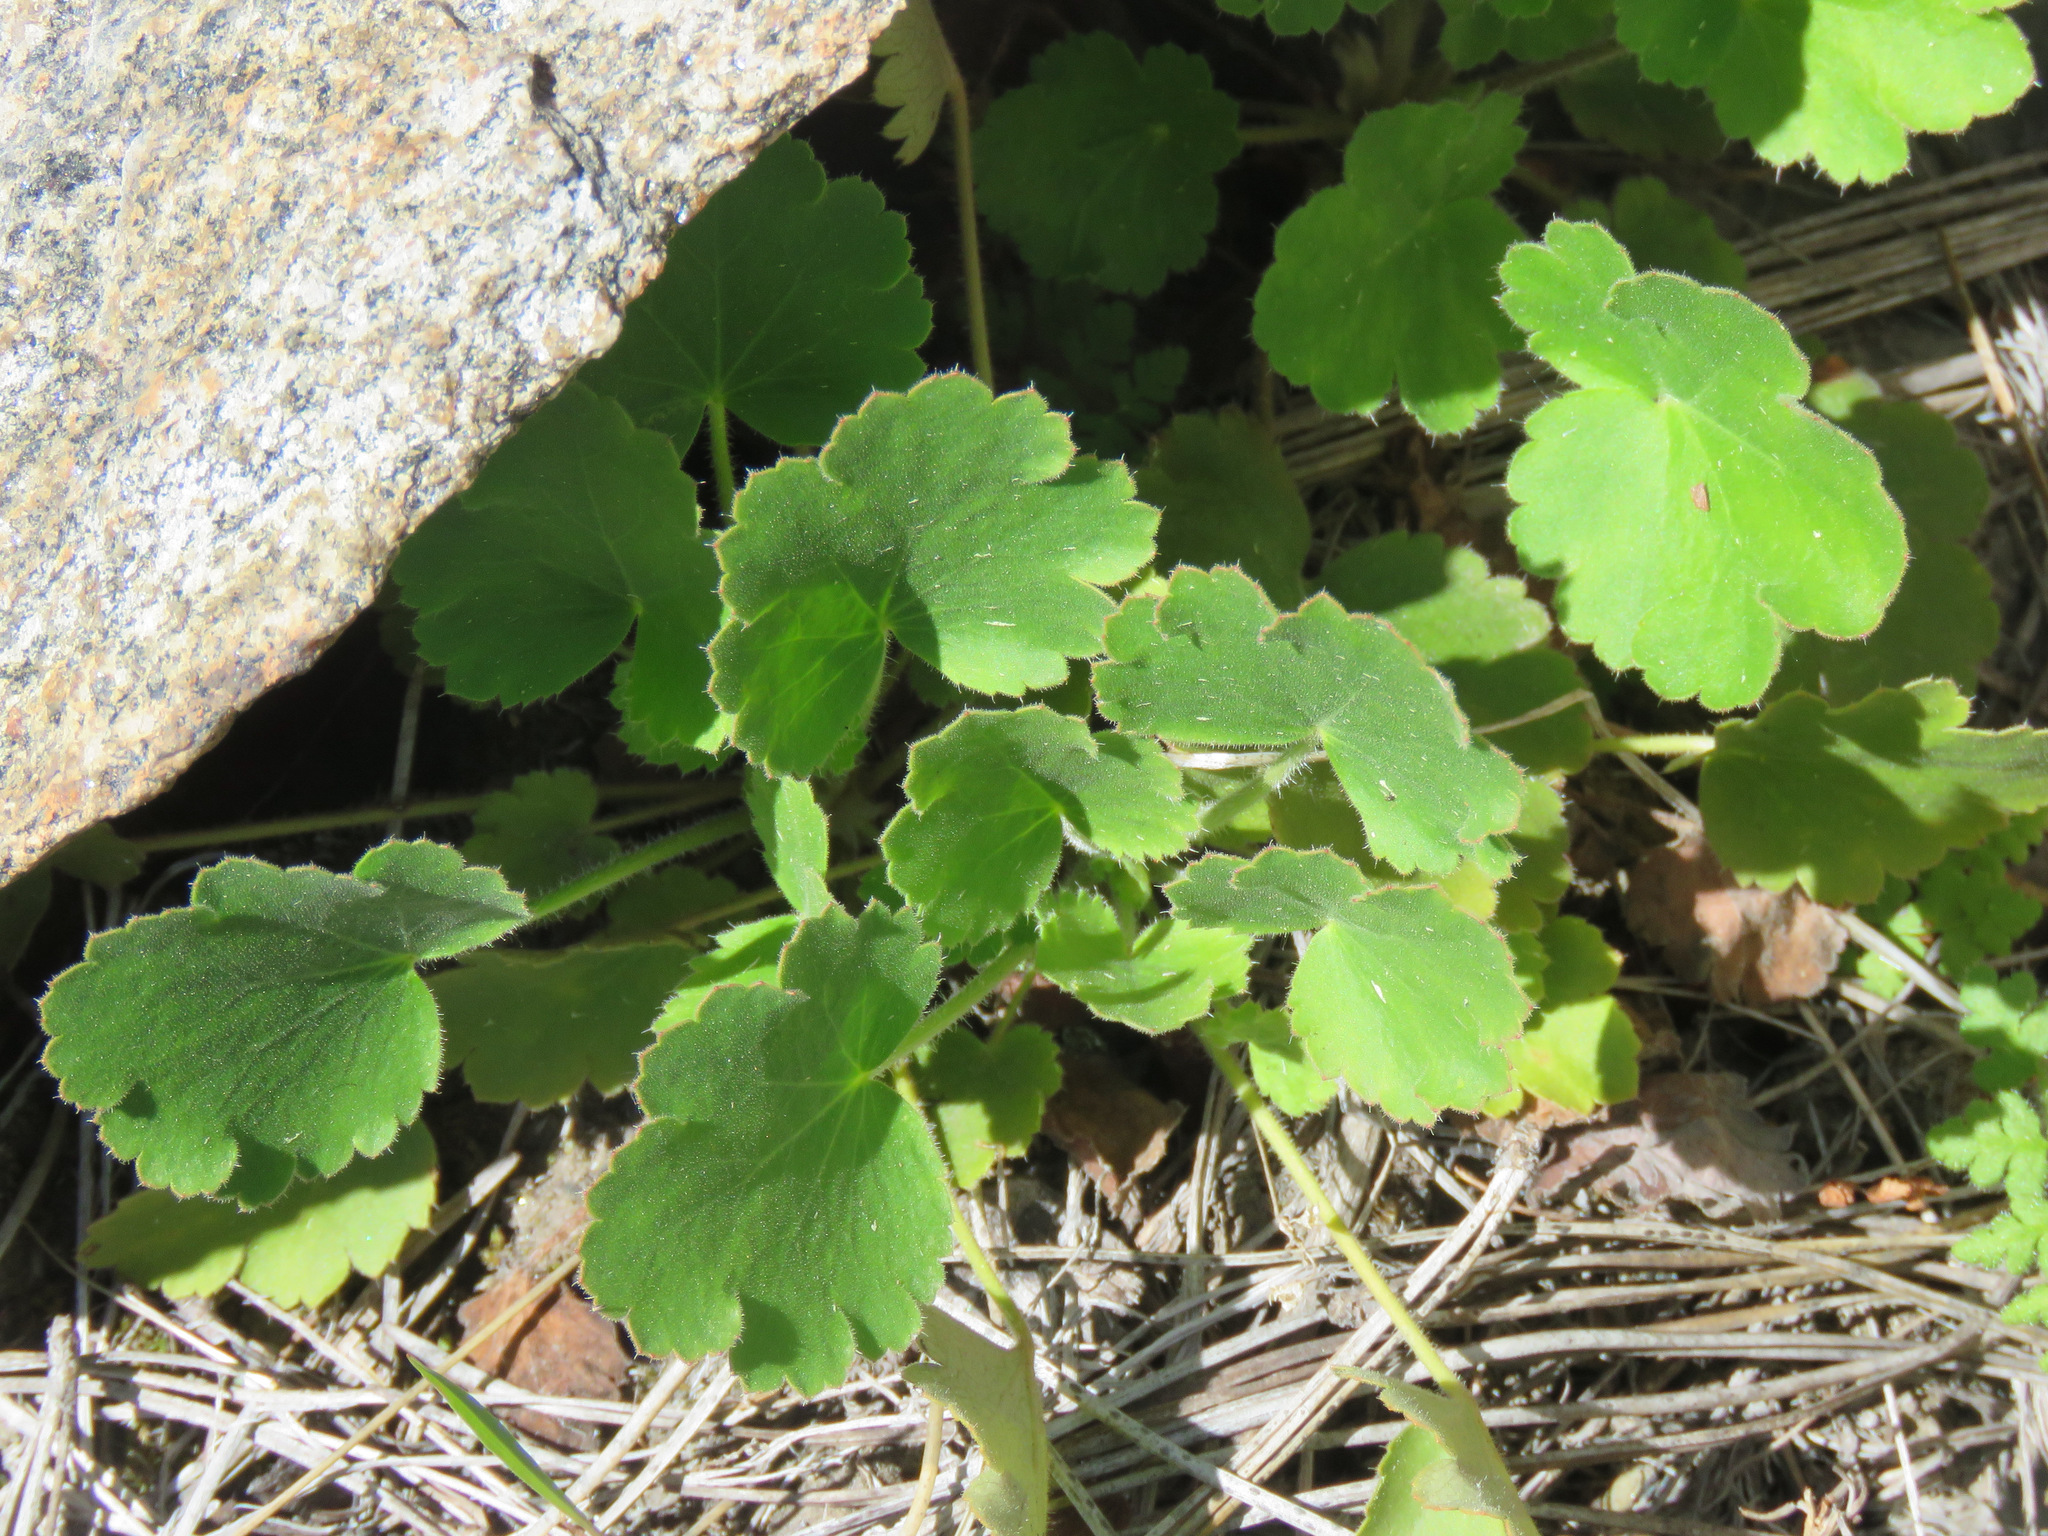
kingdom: Plantae
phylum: Tracheophyta
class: Magnoliopsida
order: Saxifragales
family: Saxifragaceae
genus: Heuchera
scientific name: Heuchera cylindrica
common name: Mat alumroot
